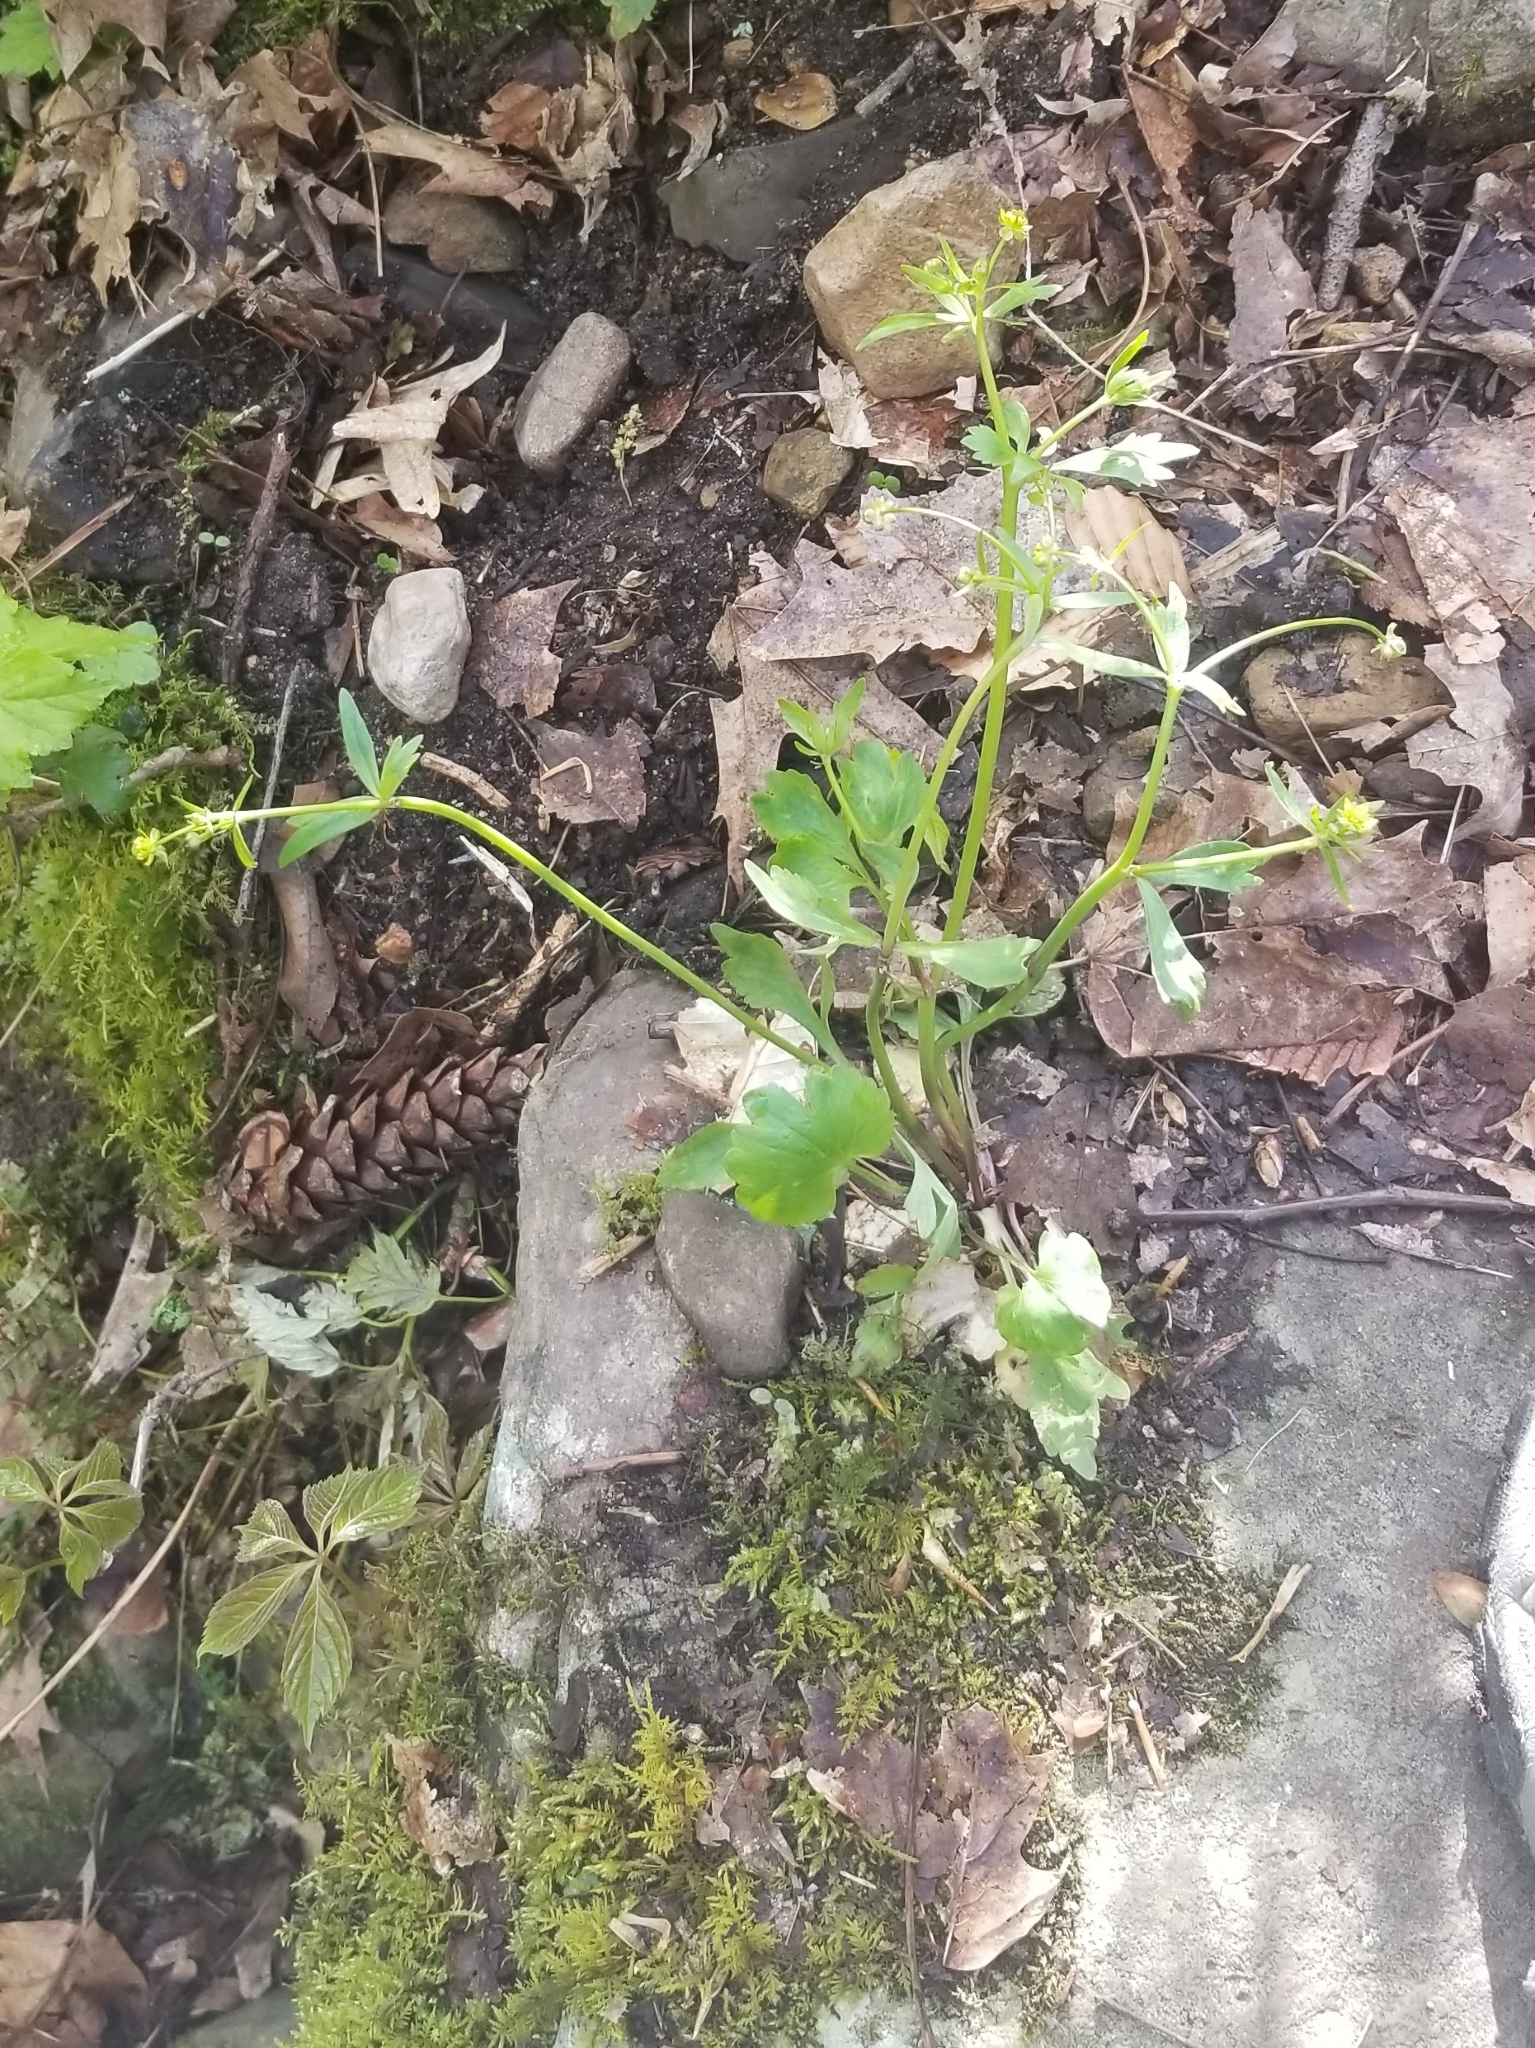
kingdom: Plantae
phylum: Tracheophyta
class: Magnoliopsida
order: Ranunculales
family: Ranunculaceae
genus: Ranunculus
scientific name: Ranunculus abortivus
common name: Early wood buttercup
